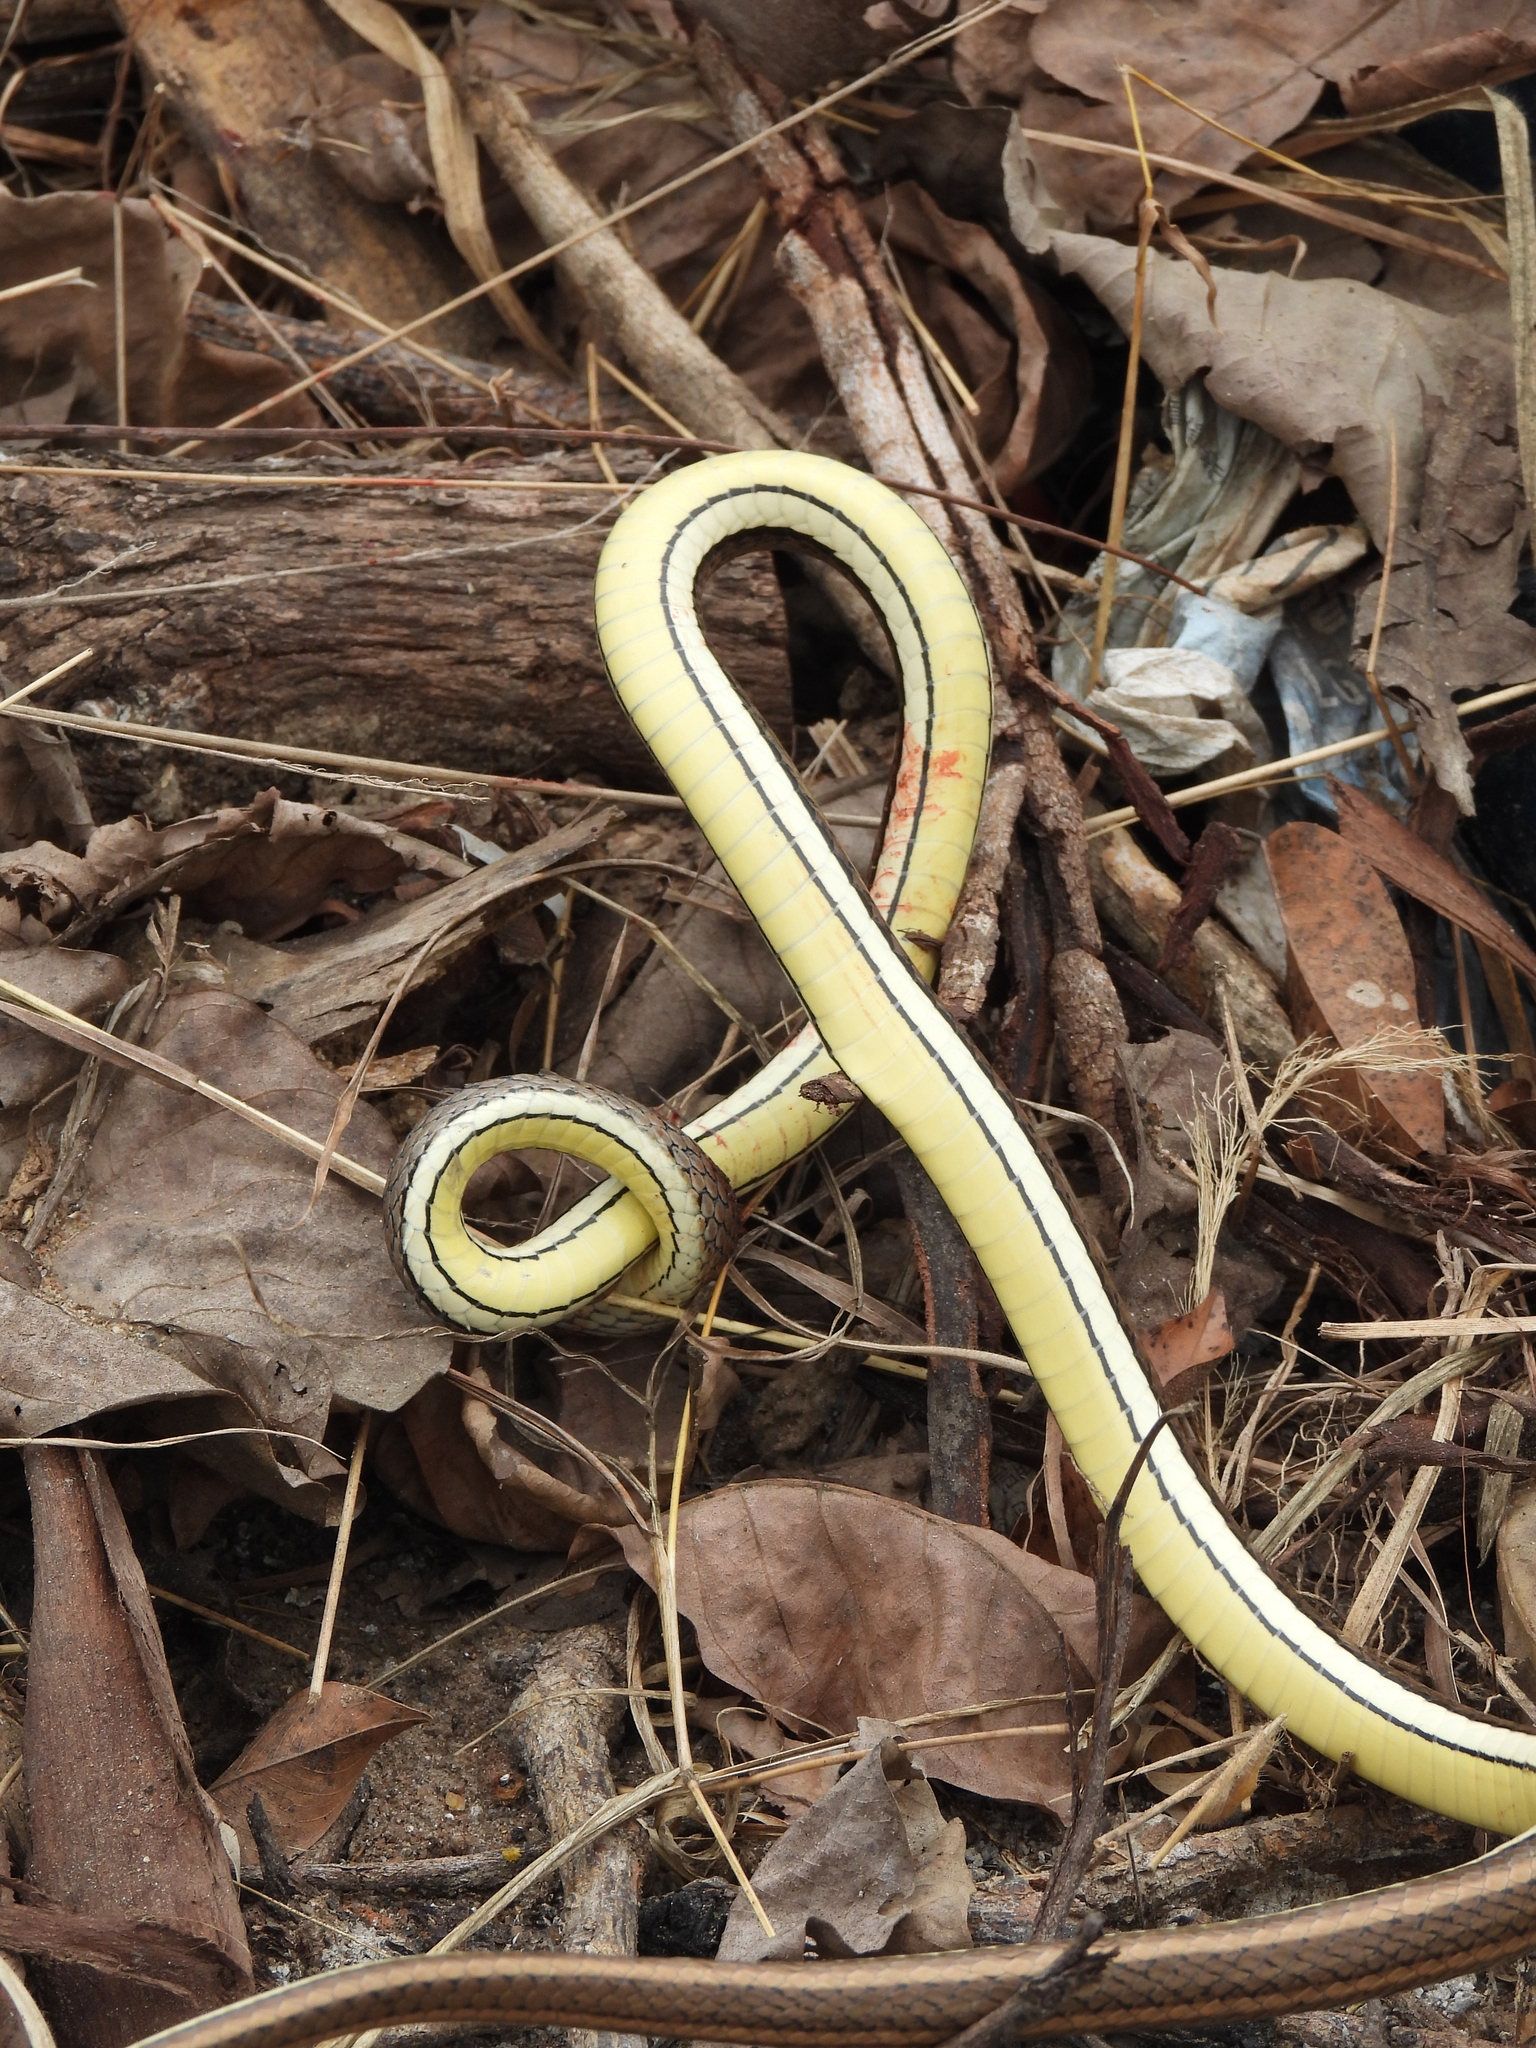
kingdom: Animalia
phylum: Chordata
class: Squamata
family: Psammophiidae
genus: Psammophis
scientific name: Psammophis orientalis
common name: Eastern stripe-bellied sand snake
